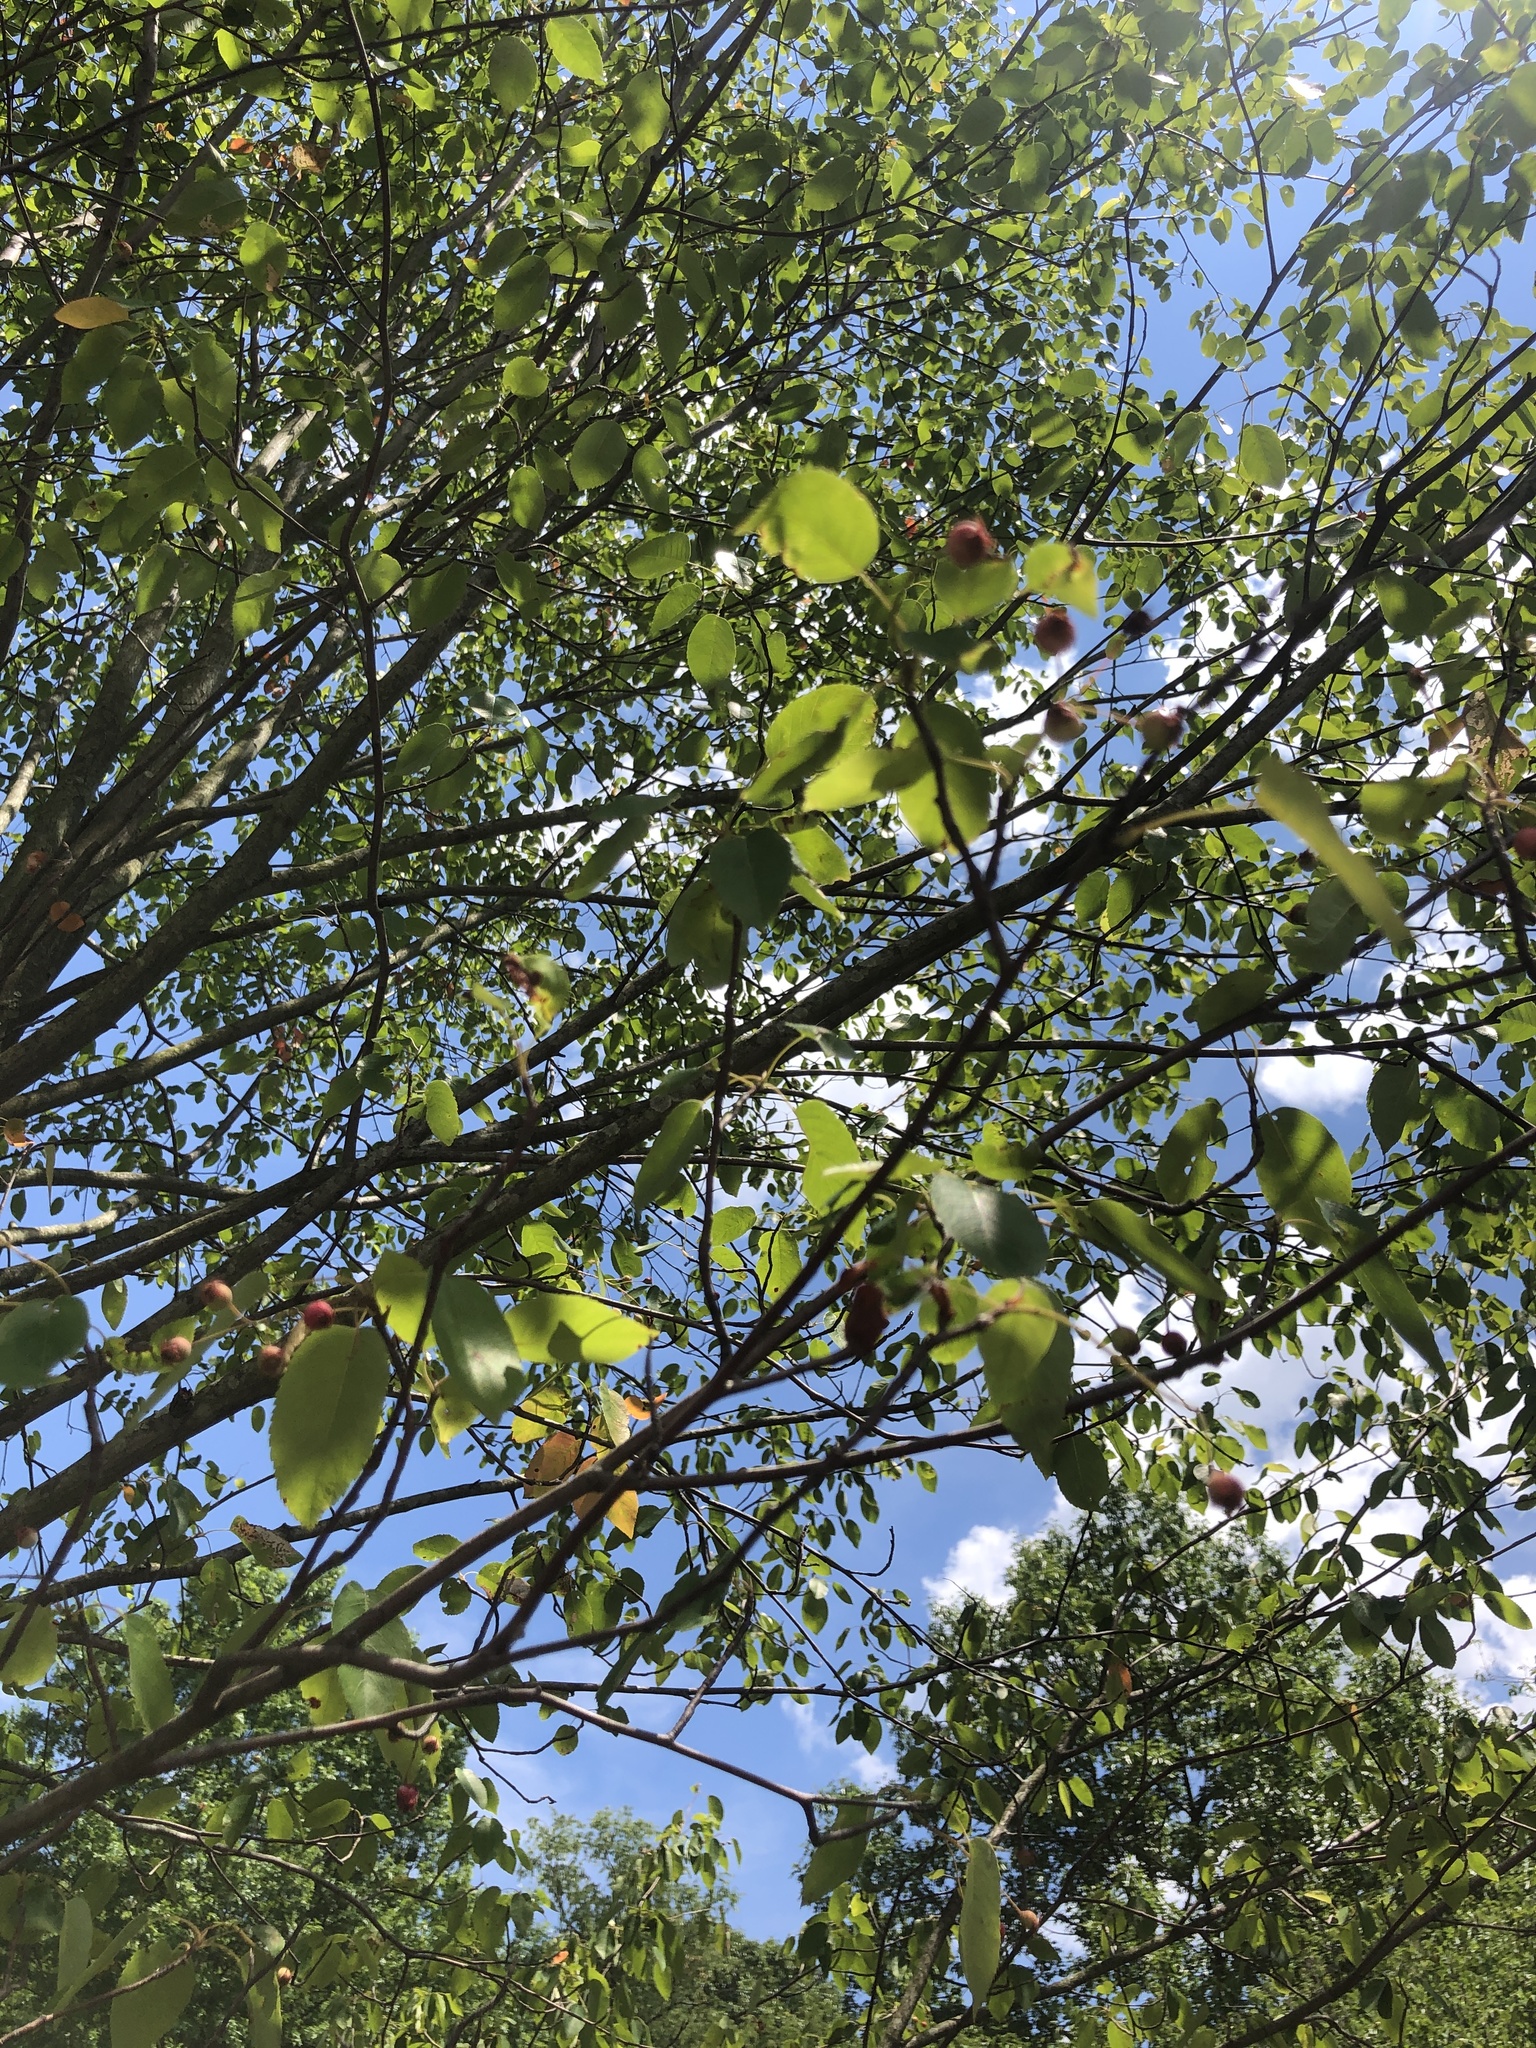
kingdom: Plantae
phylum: Tracheophyta
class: Magnoliopsida
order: Rosales
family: Rosaceae
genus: Malus
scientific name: Malus domestica
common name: Apple
